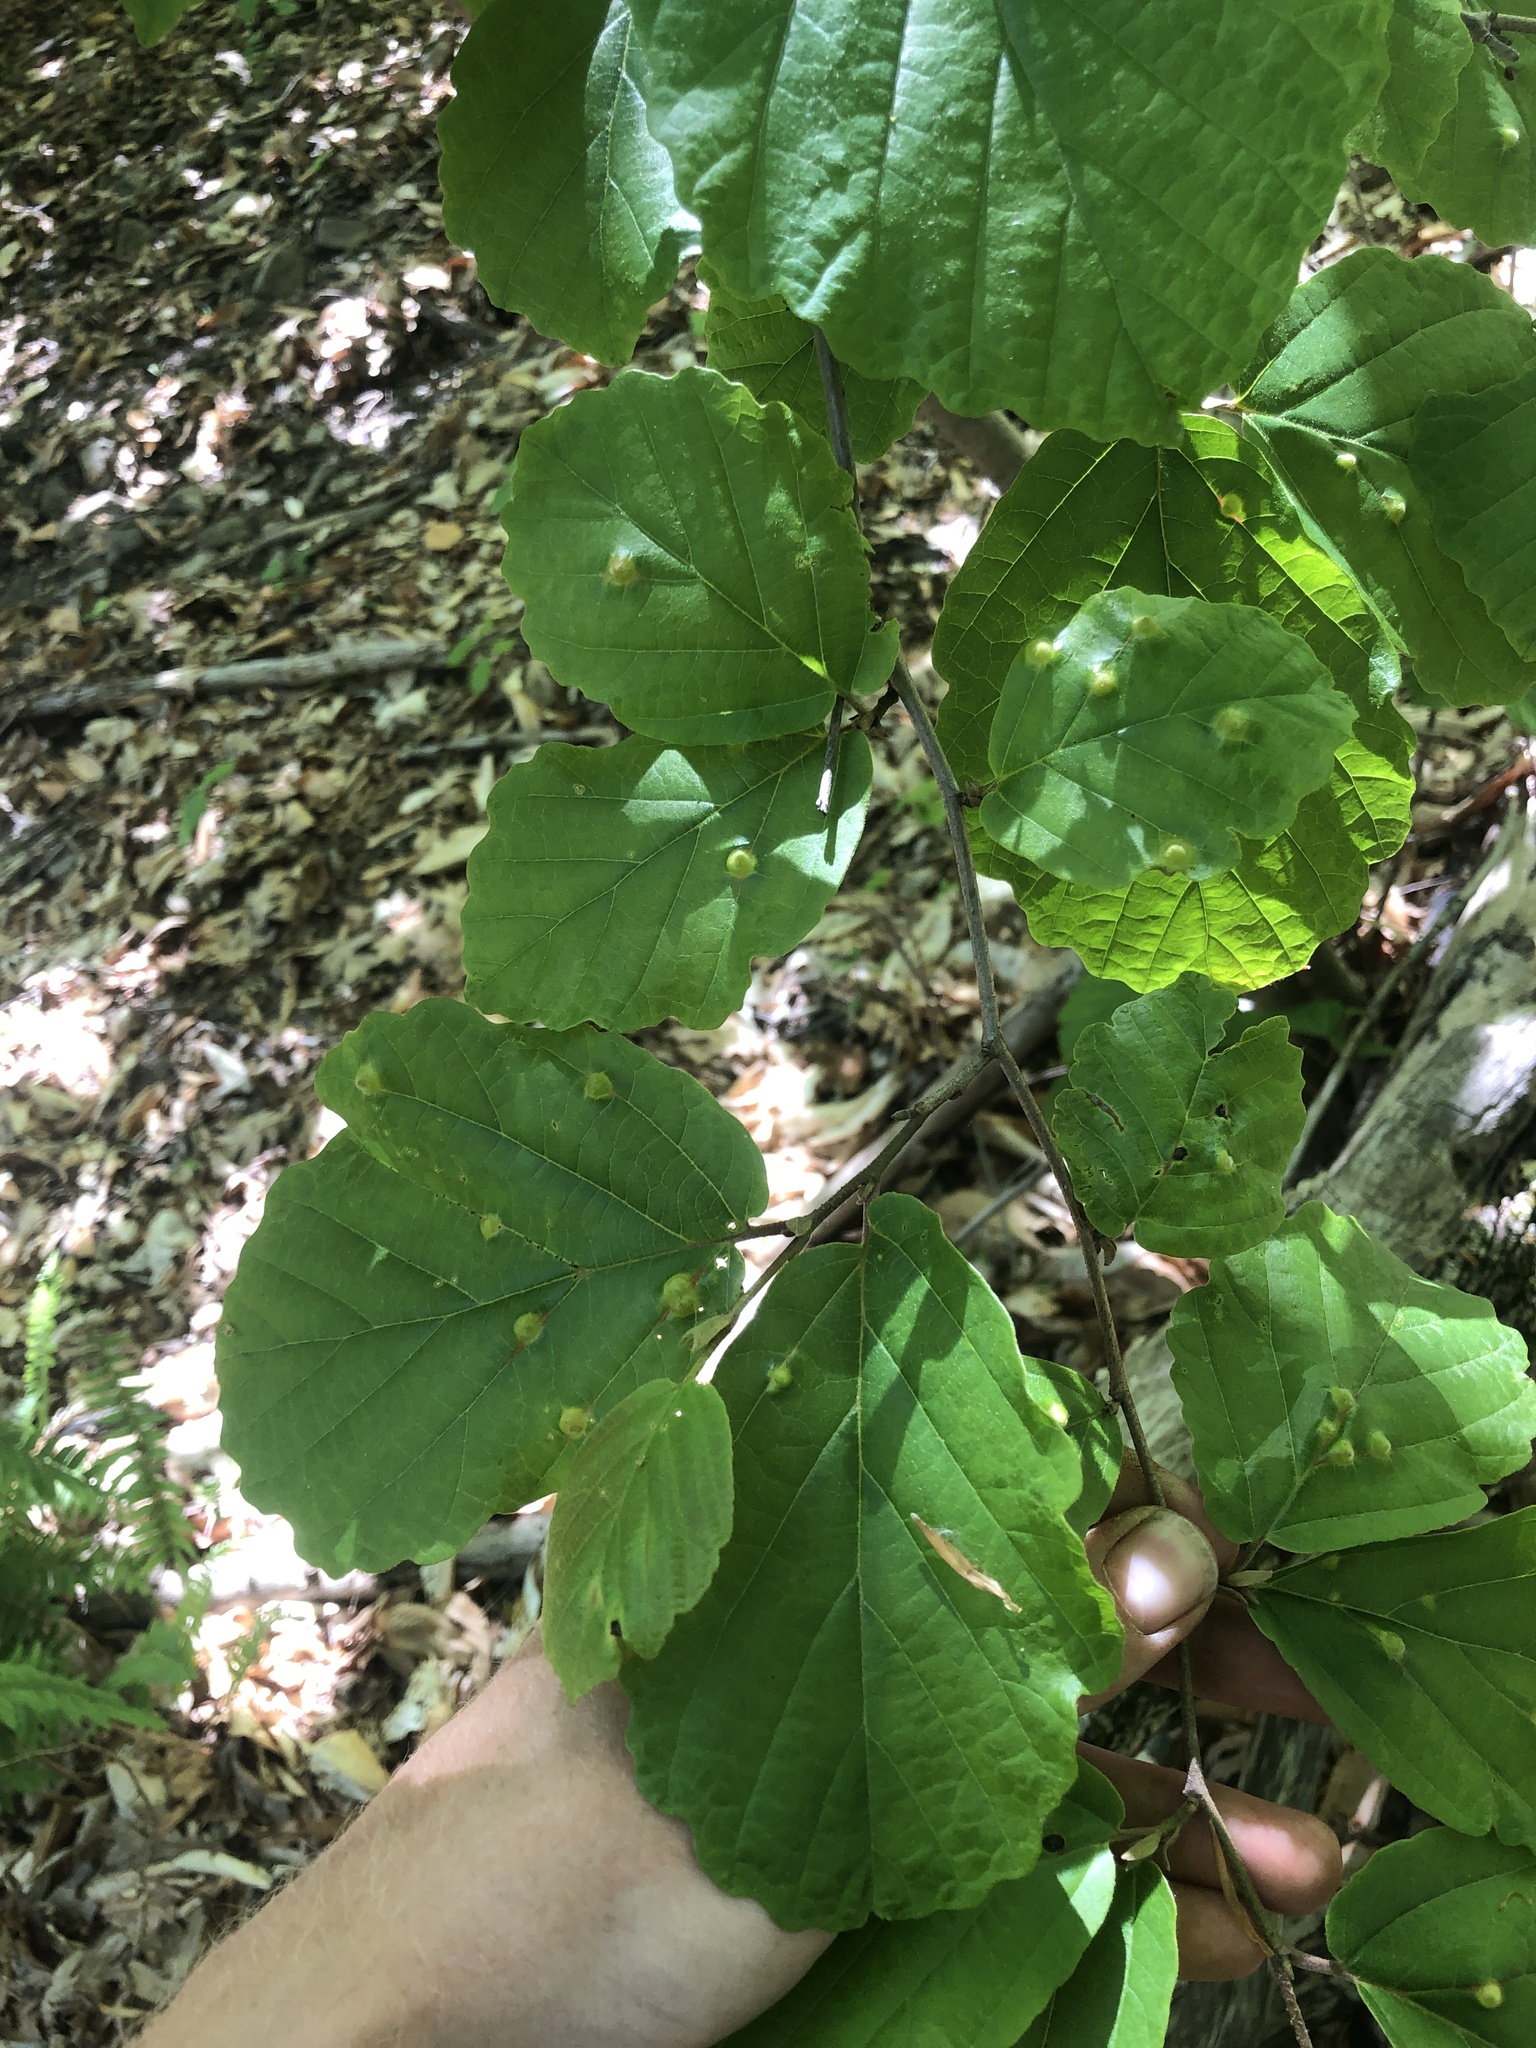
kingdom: Plantae
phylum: Tracheophyta
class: Magnoliopsida
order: Saxifragales
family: Hamamelidaceae
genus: Hamamelis
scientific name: Hamamelis virginiana
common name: Witch-hazel
